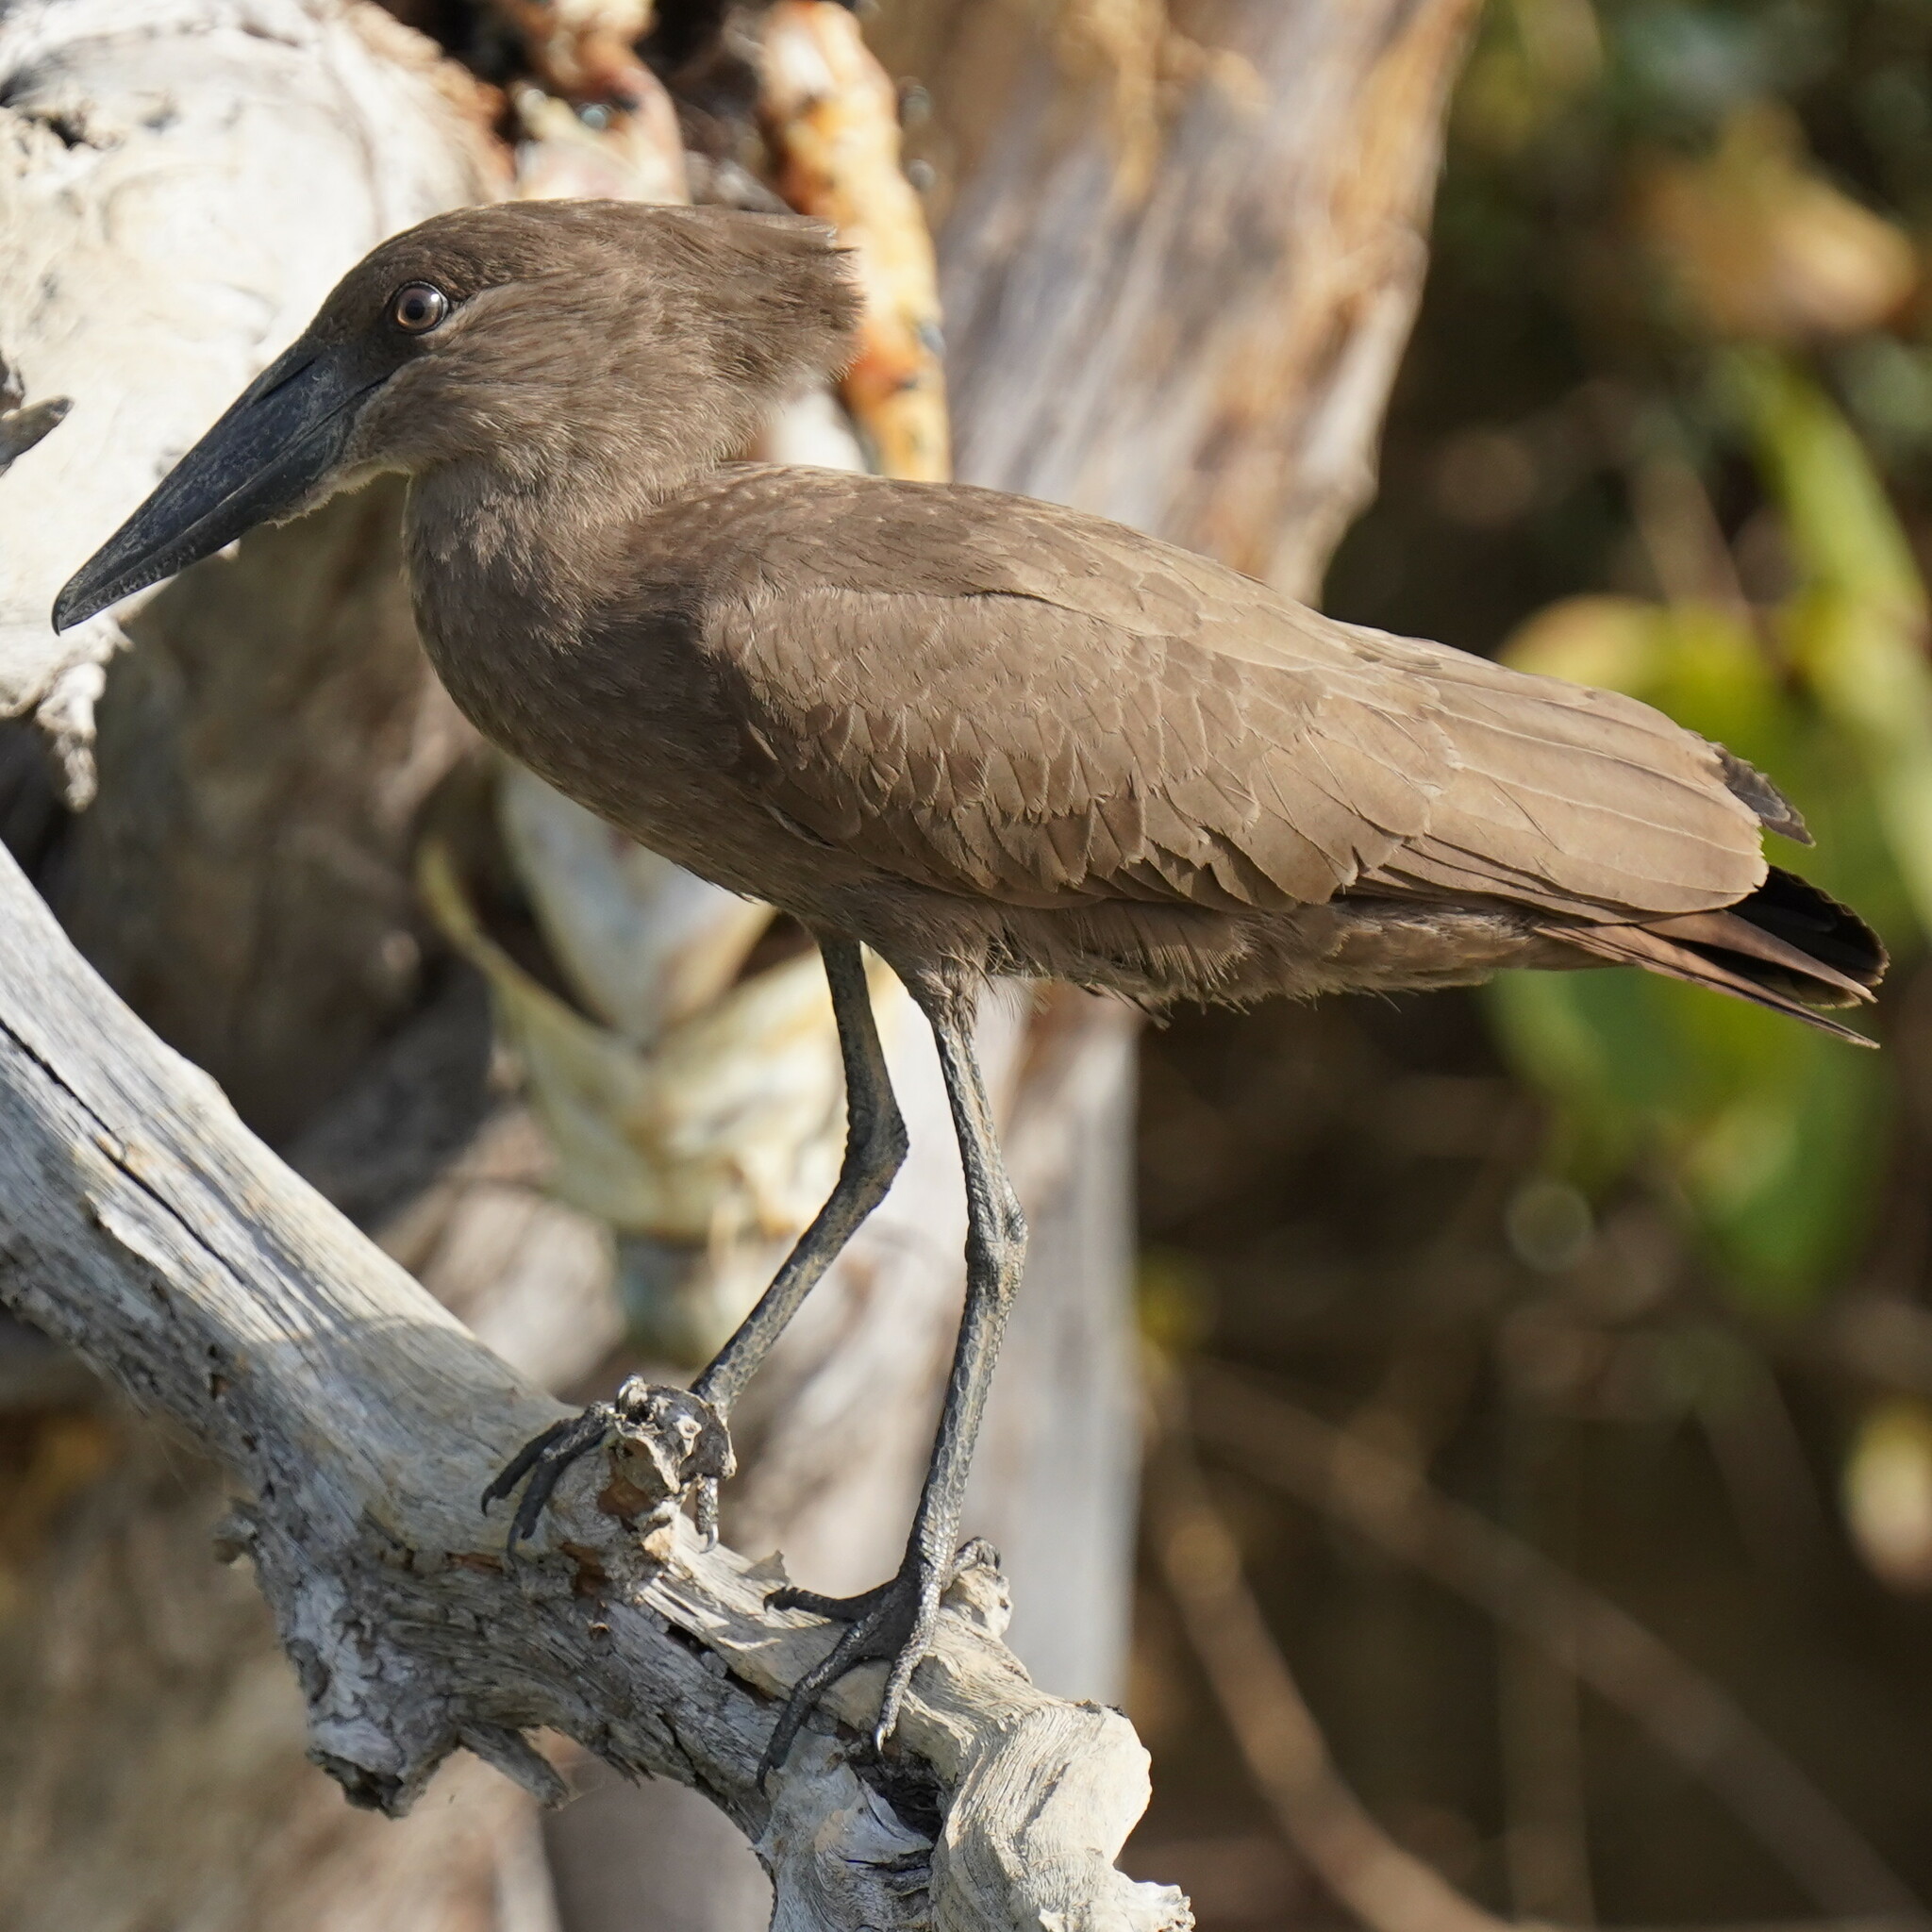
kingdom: Animalia
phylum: Chordata
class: Aves
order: Pelecaniformes
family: Scopidae
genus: Scopus
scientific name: Scopus umbretta
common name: Hamerkop
